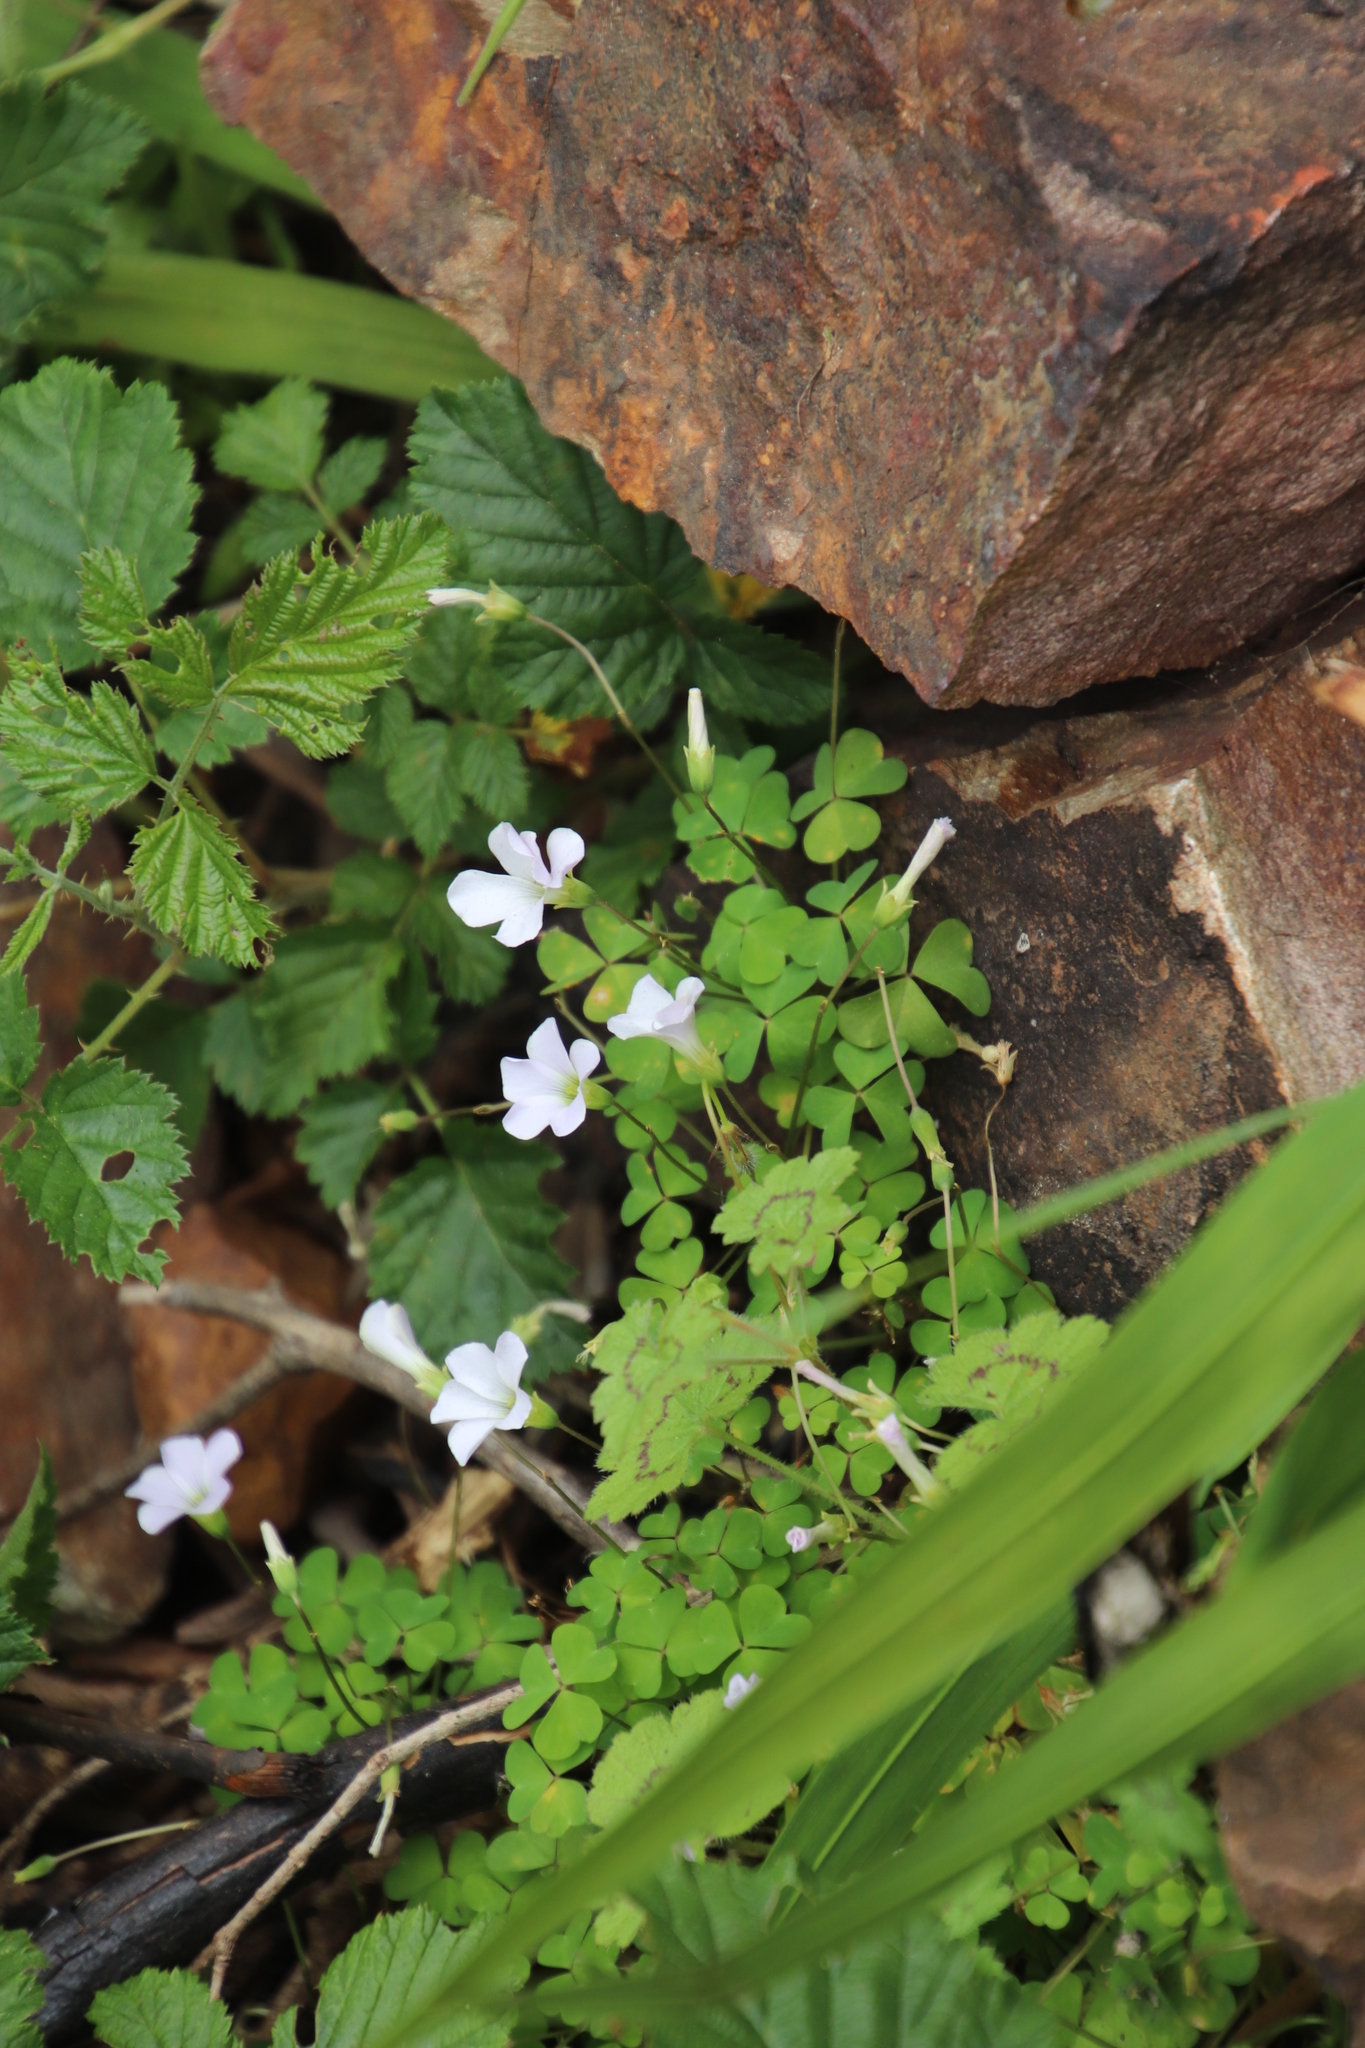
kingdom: Plantae
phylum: Tracheophyta
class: Magnoliopsida
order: Oxalidales
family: Oxalidaceae
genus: Oxalis
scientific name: Oxalis incarnata
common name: Pale pink-sorrel
